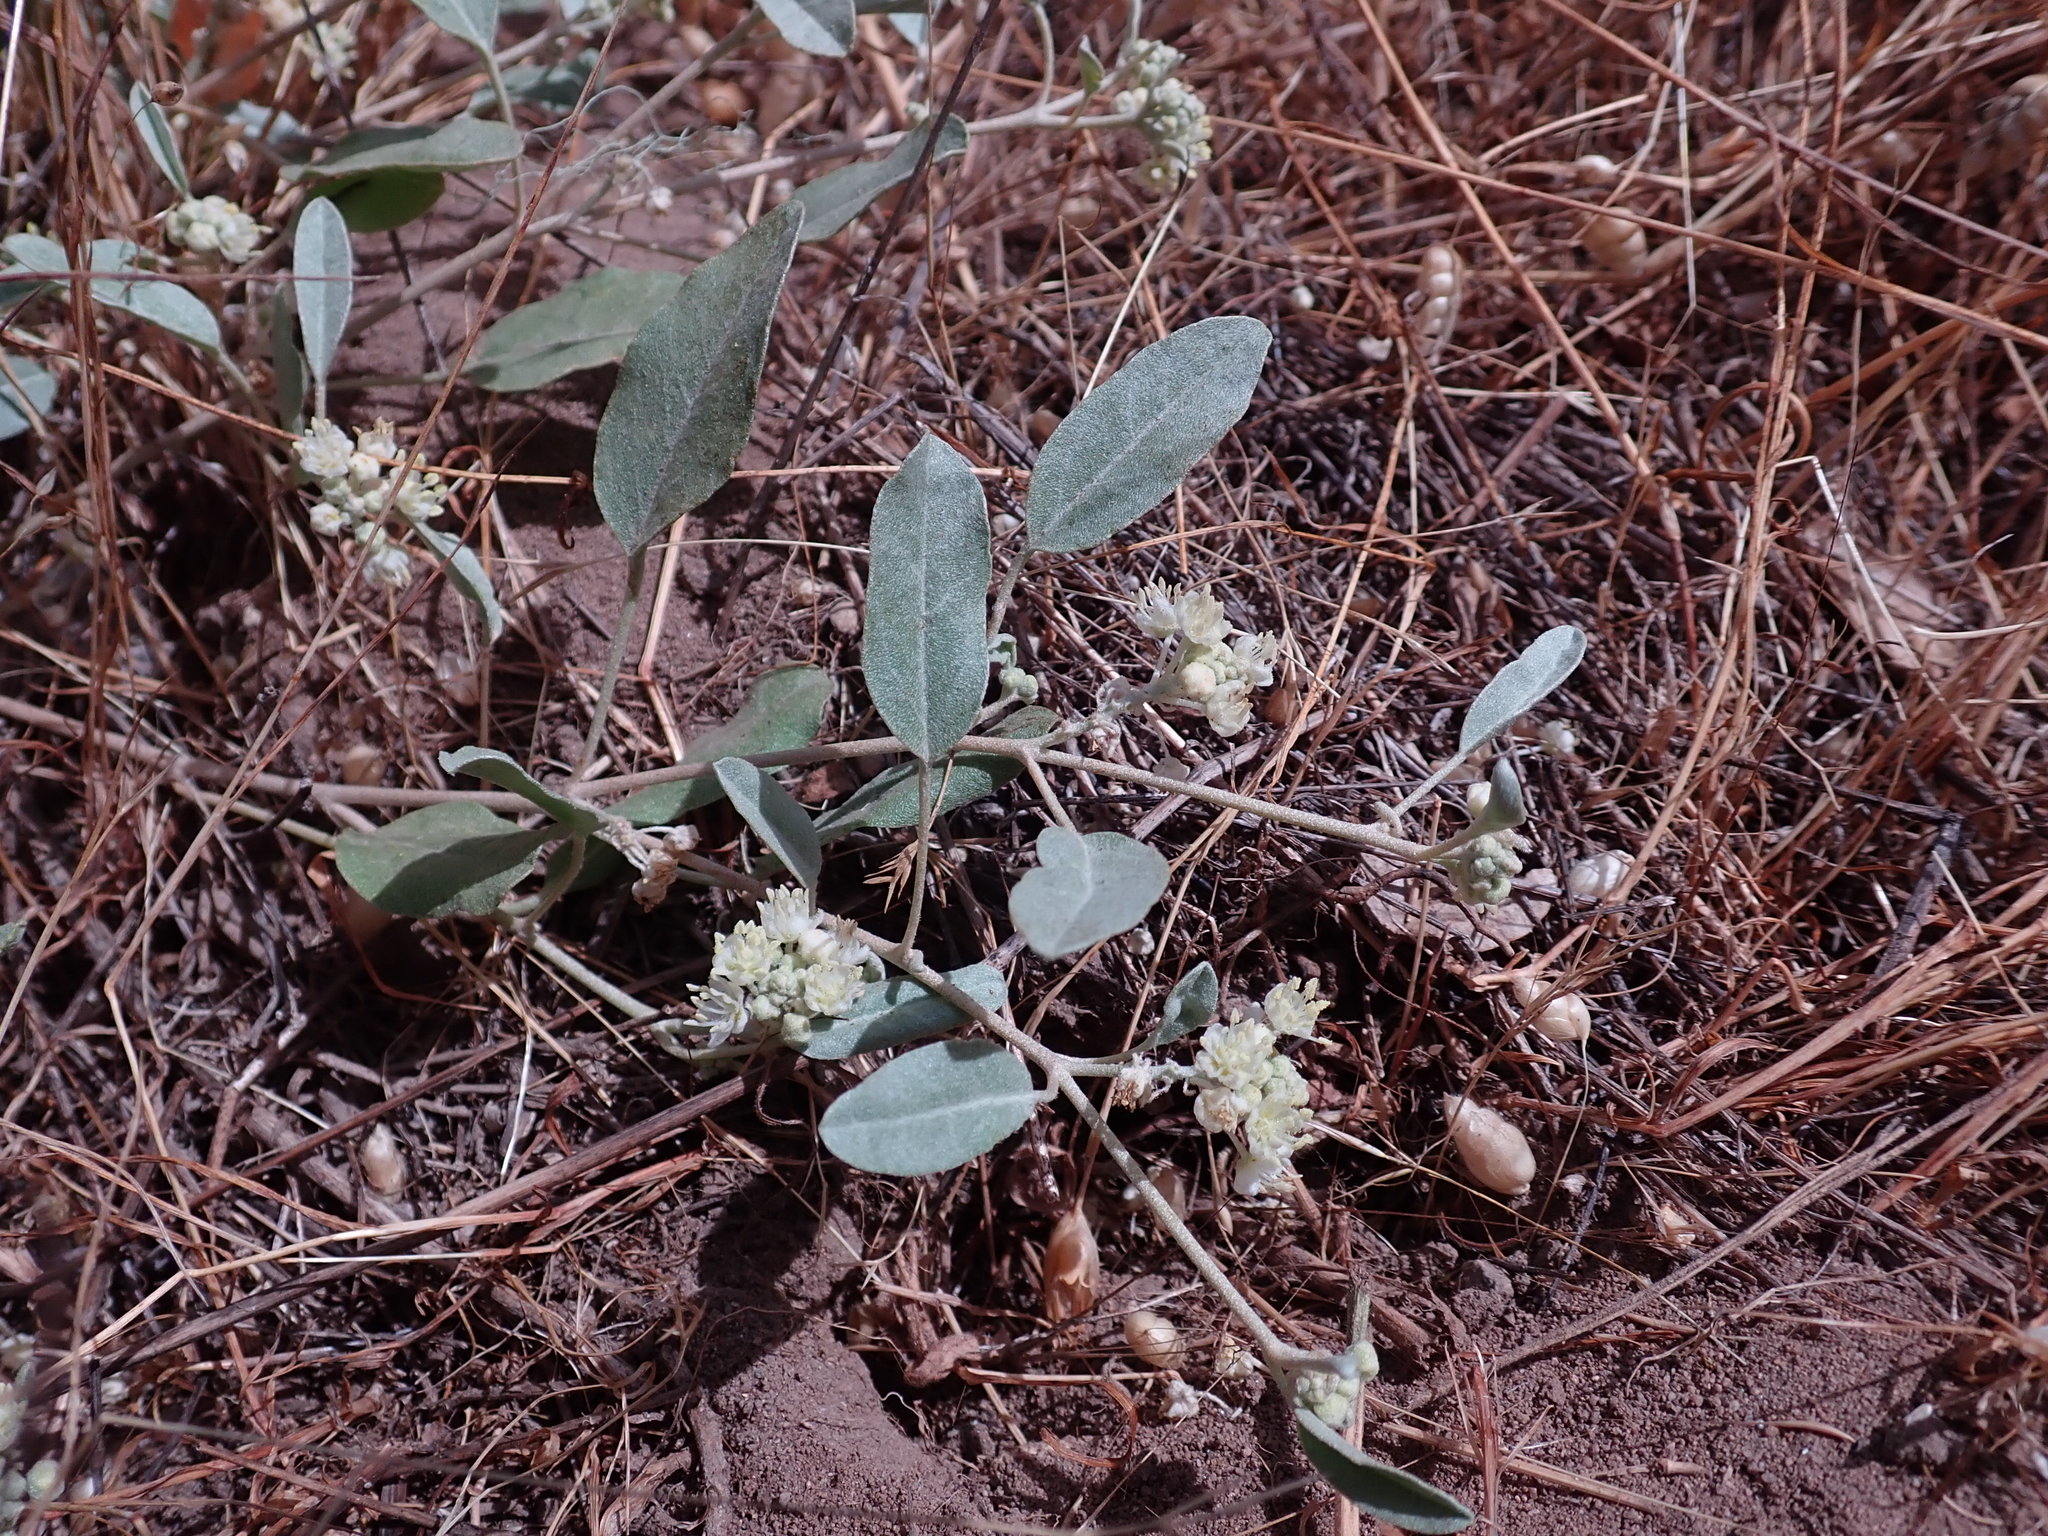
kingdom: Plantae
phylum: Tracheophyta
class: Magnoliopsida
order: Malpighiales
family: Euphorbiaceae
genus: Croton
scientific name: Croton californicus
